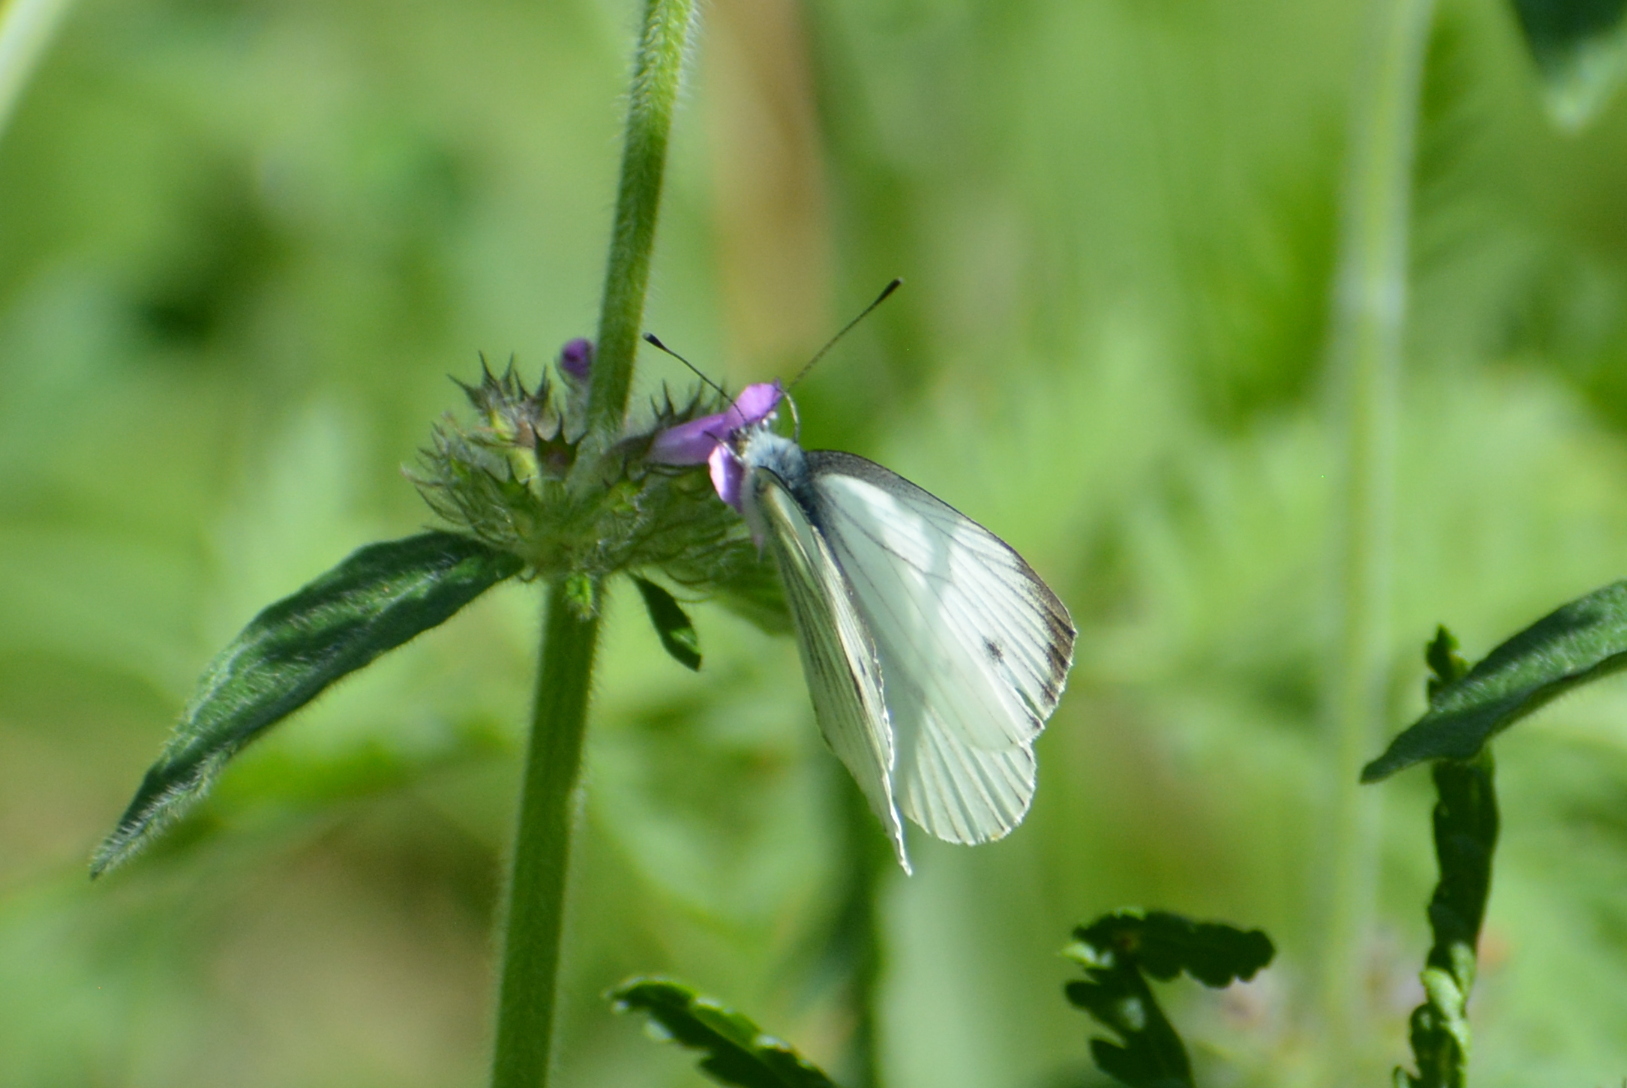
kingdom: Animalia
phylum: Arthropoda
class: Insecta
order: Lepidoptera
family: Pieridae
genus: Pieris
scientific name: Pieris napi
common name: Green-veined white
